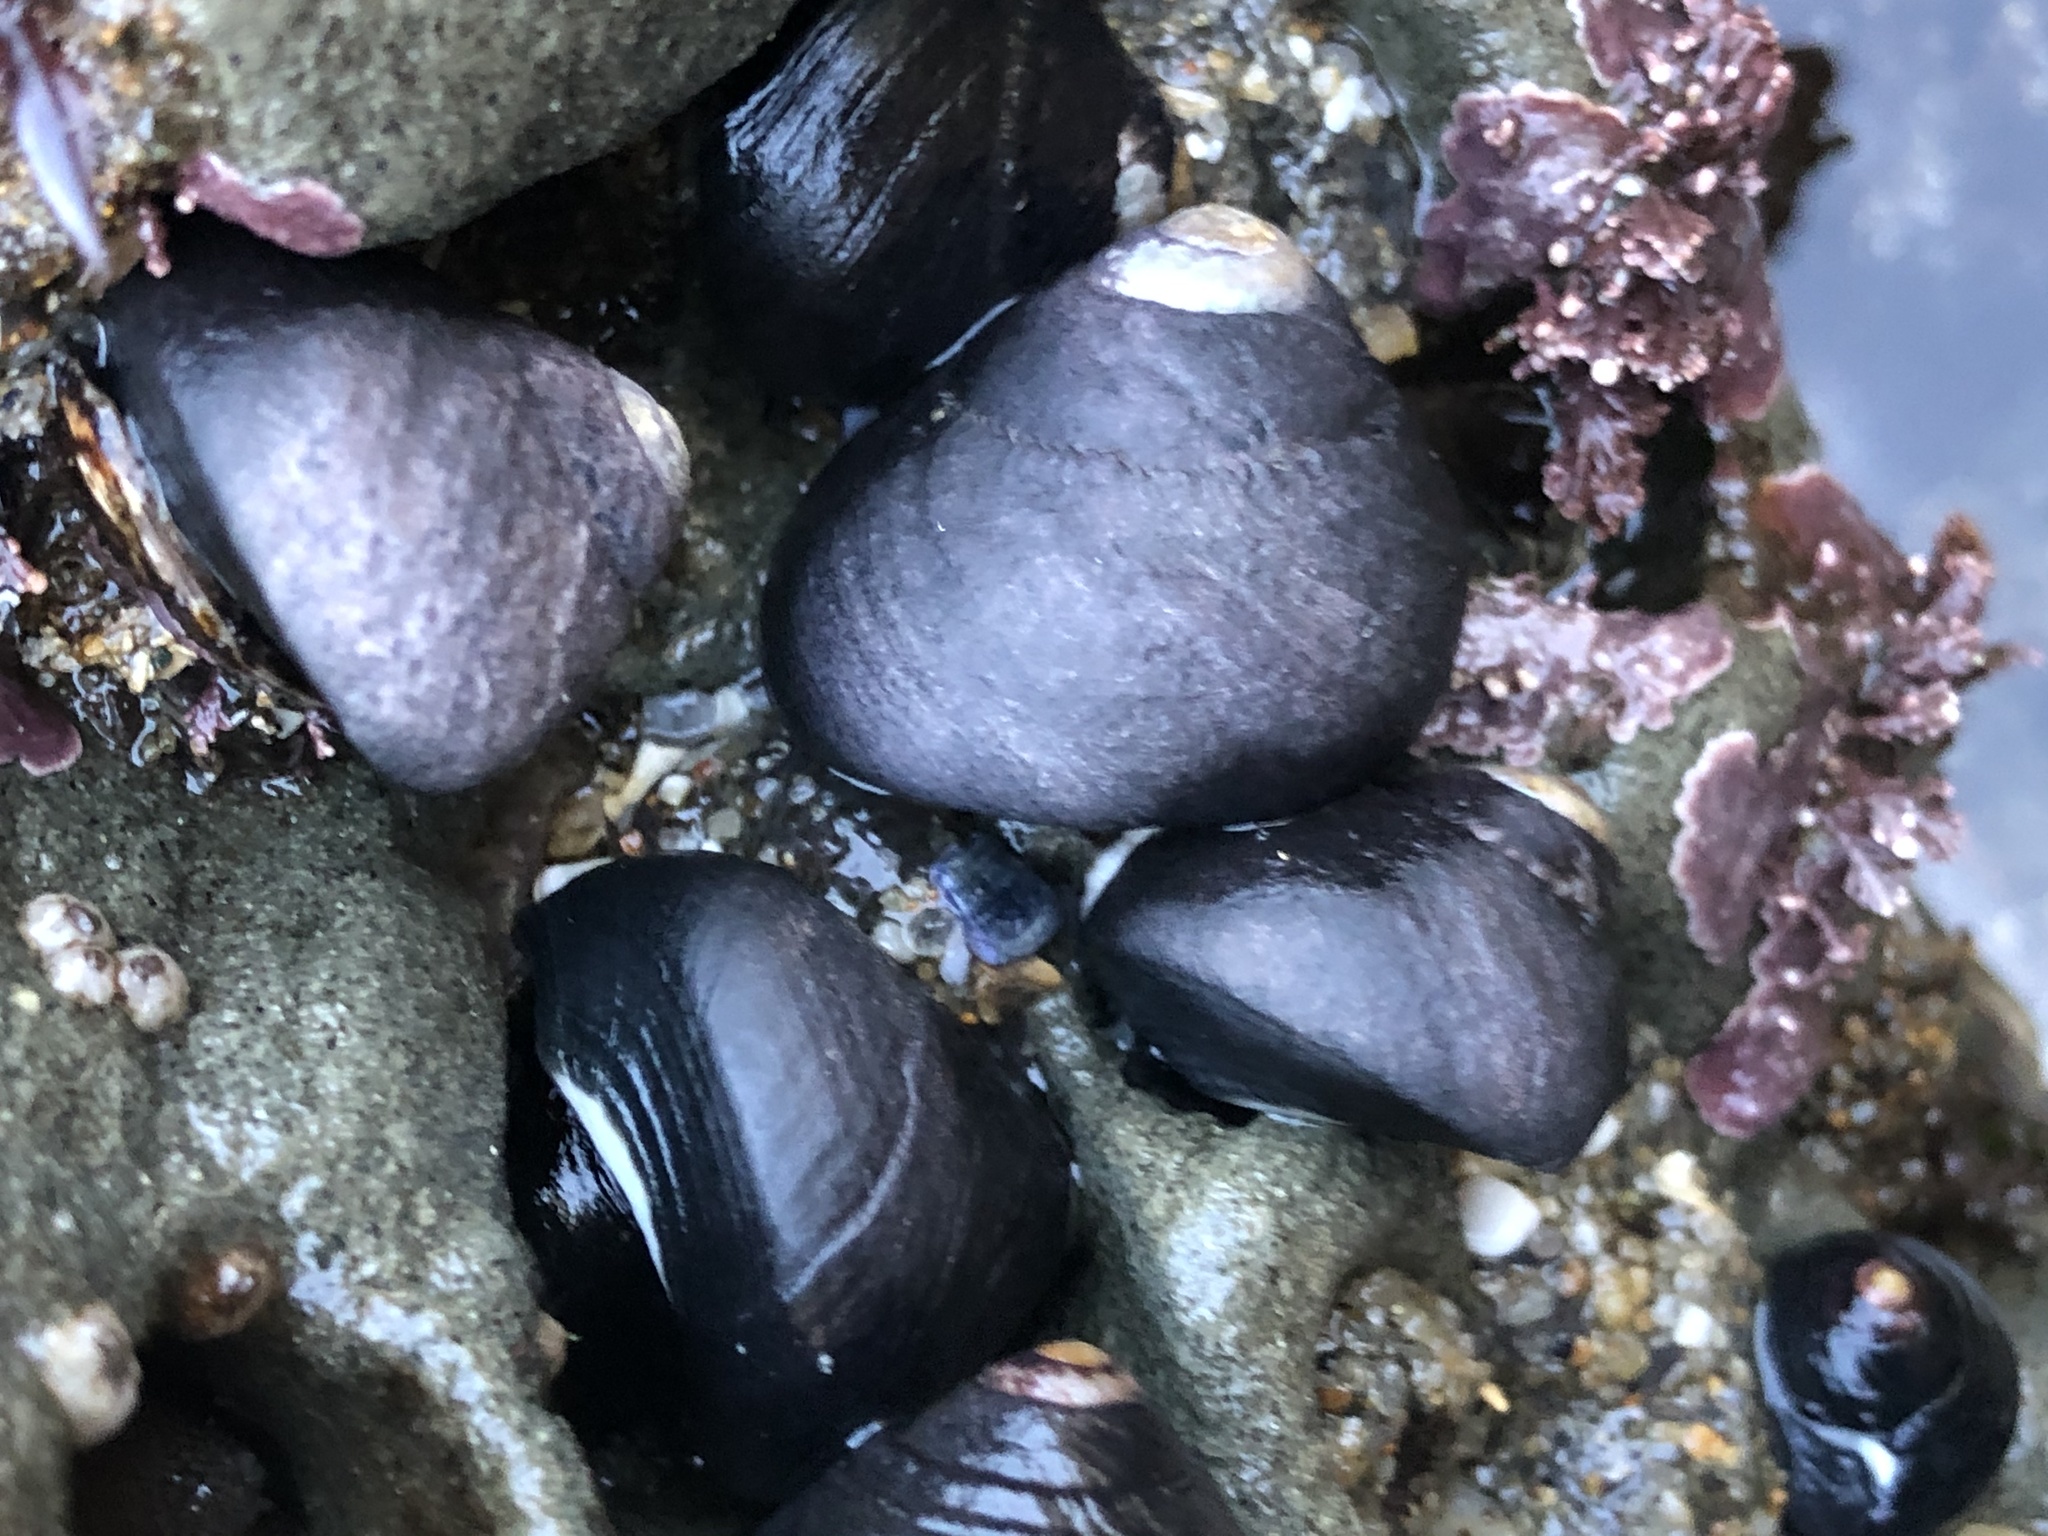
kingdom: Animalia
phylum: Mollusca
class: Gastropoda
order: Trochida
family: Tegulidae
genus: Tegula
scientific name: Tegula funebralis
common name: Black tegula
